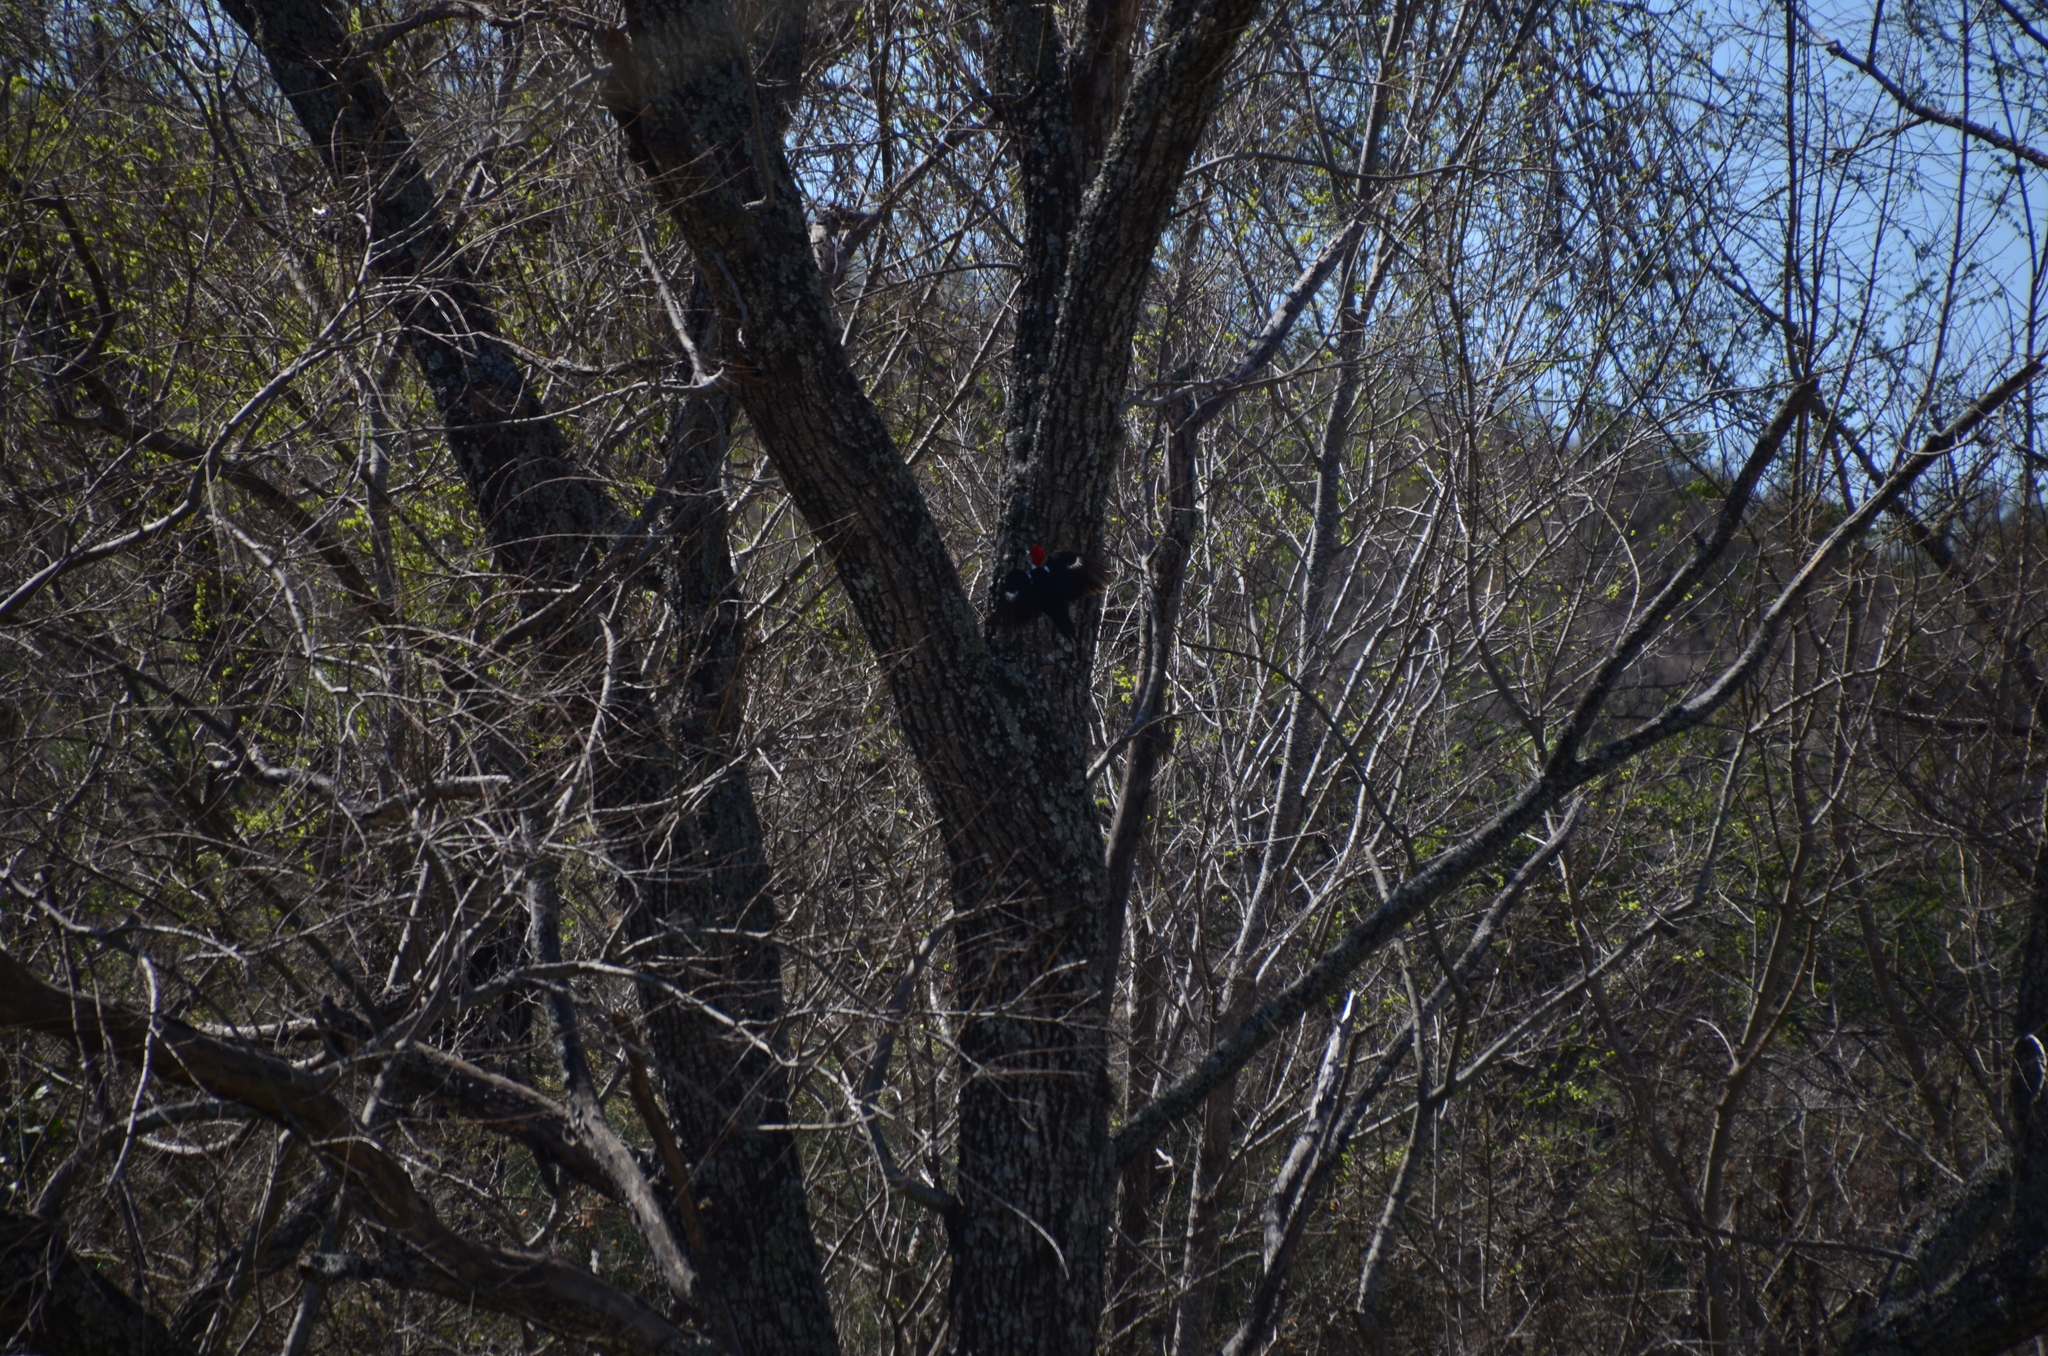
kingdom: Animalia
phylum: Chordata
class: Aves
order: Piciformes
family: Picidae
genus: Dryocopus
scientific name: Dryocopus schulzii
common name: Black-bodied woodpecker
